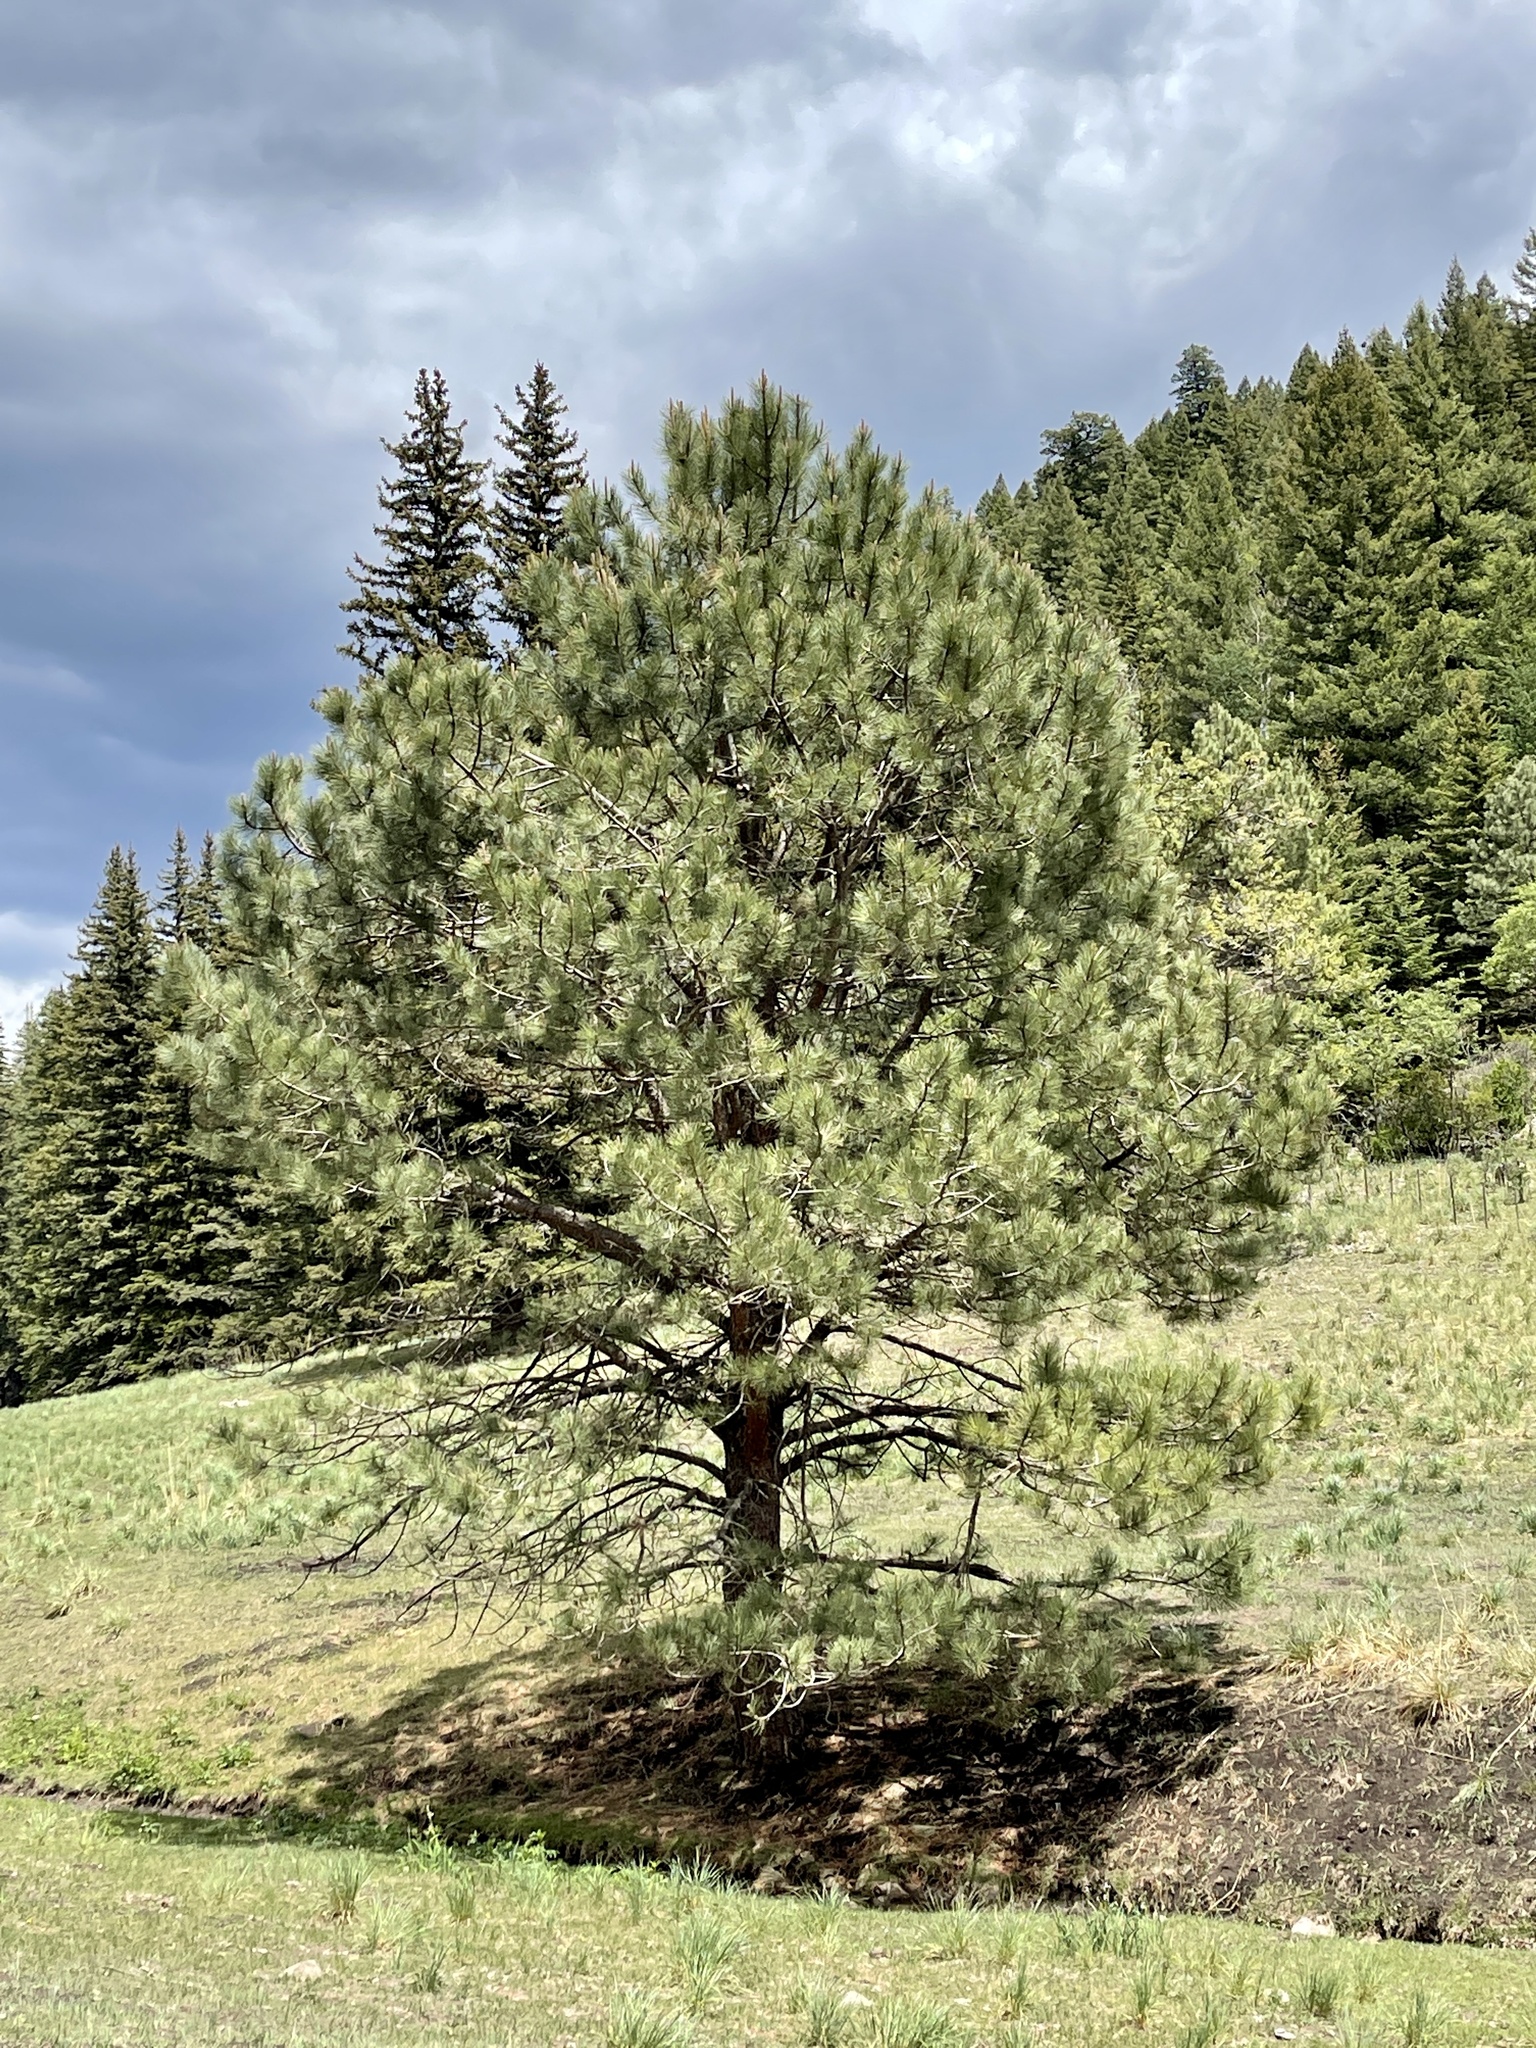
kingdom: Plantae
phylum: Tracheophyta
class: Pinopsida
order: Pinales
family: Pinaceae
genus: Pinus
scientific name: Pinus ponderosa
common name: Western yellow-pine
